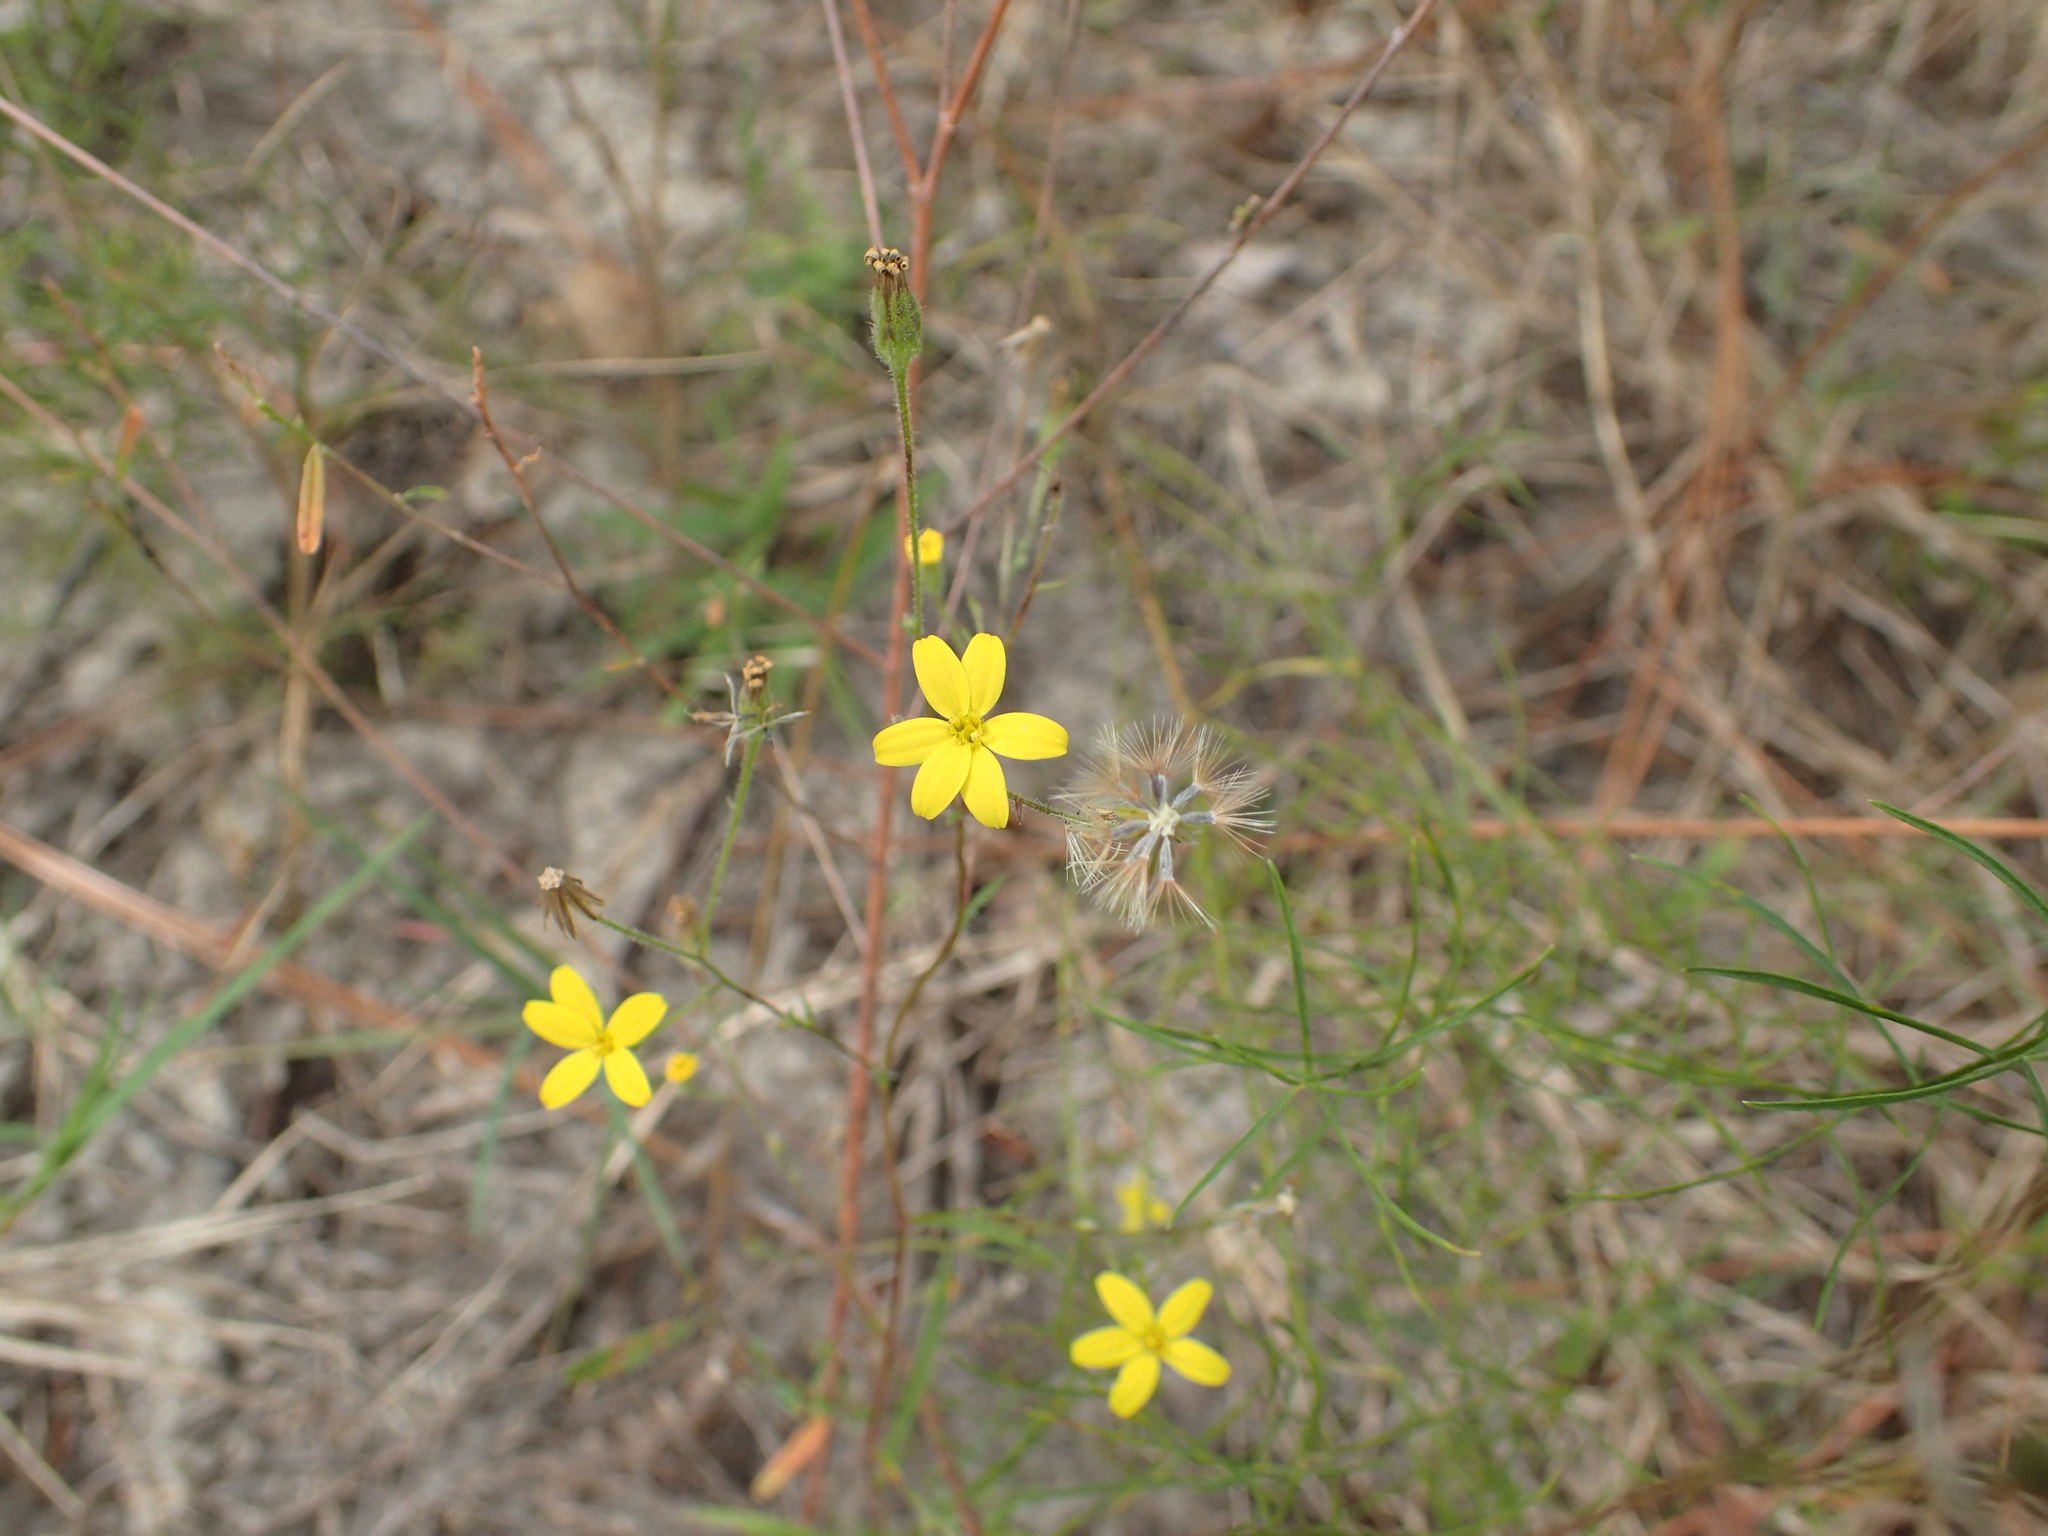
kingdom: Plantae
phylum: Tracheophyta
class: Magnoliopsida
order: Asterales
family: Asteraceae
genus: Croptilon
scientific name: Croptilon divaricatum
